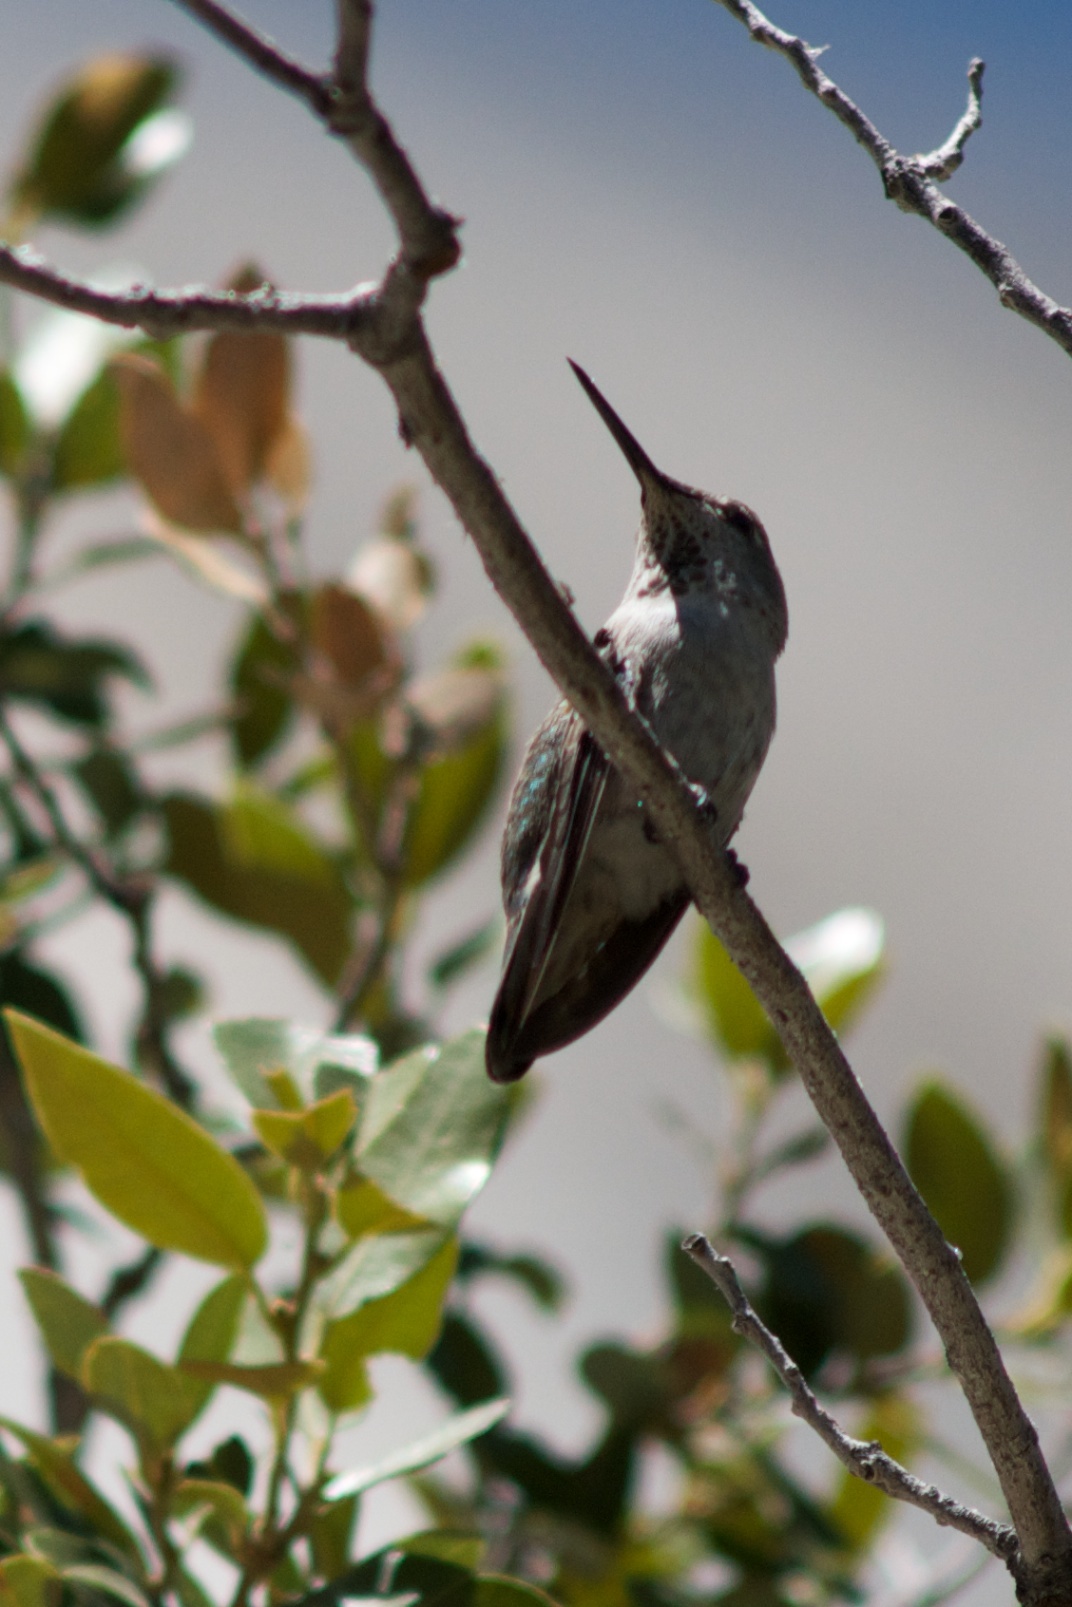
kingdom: Animalia
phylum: Chordata
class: Aves
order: Apodiformes
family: Trochilidae
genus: Calypte
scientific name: Calypte anna
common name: Anna's hummingbird
